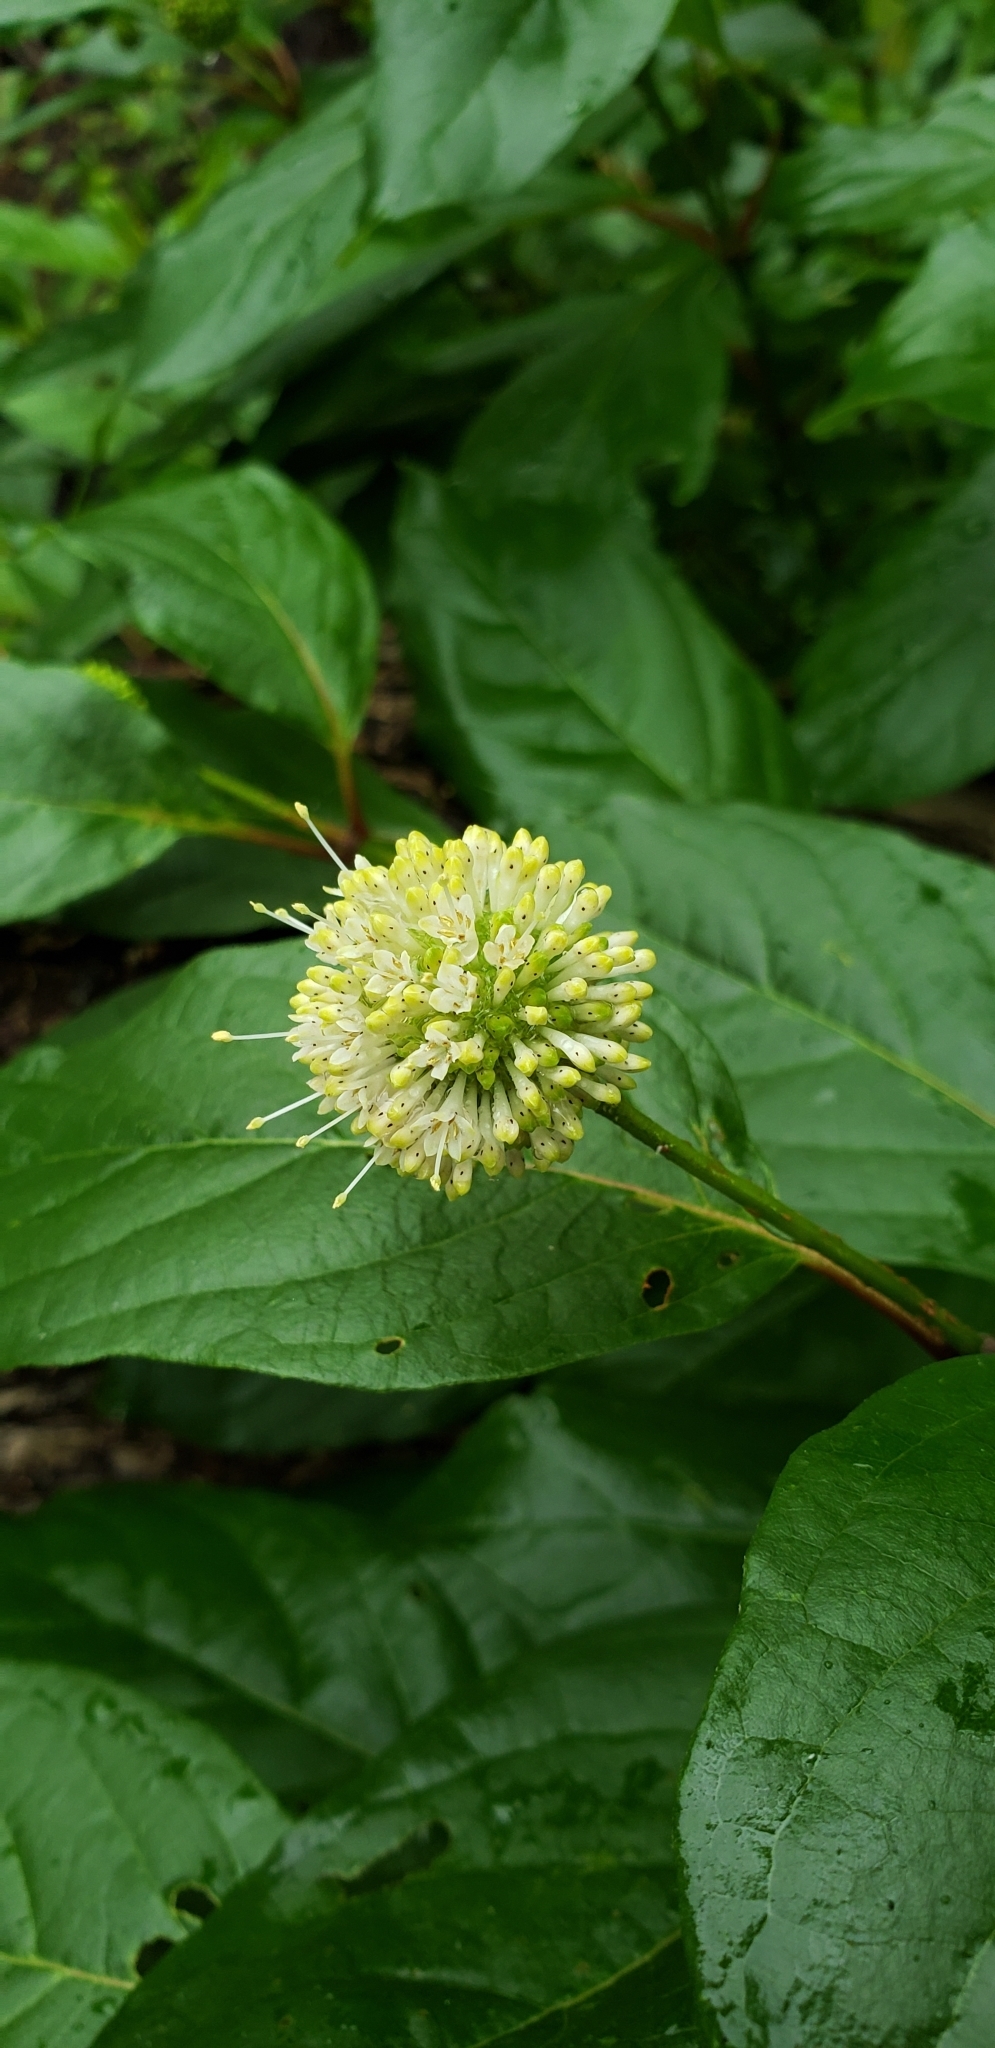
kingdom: Plantae
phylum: Tracheophyta
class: Magnoliopsida
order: Gentianales
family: Rubiaceae
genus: Cephalanthus
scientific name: Cephalanthus occidentalis
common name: Button-willow
